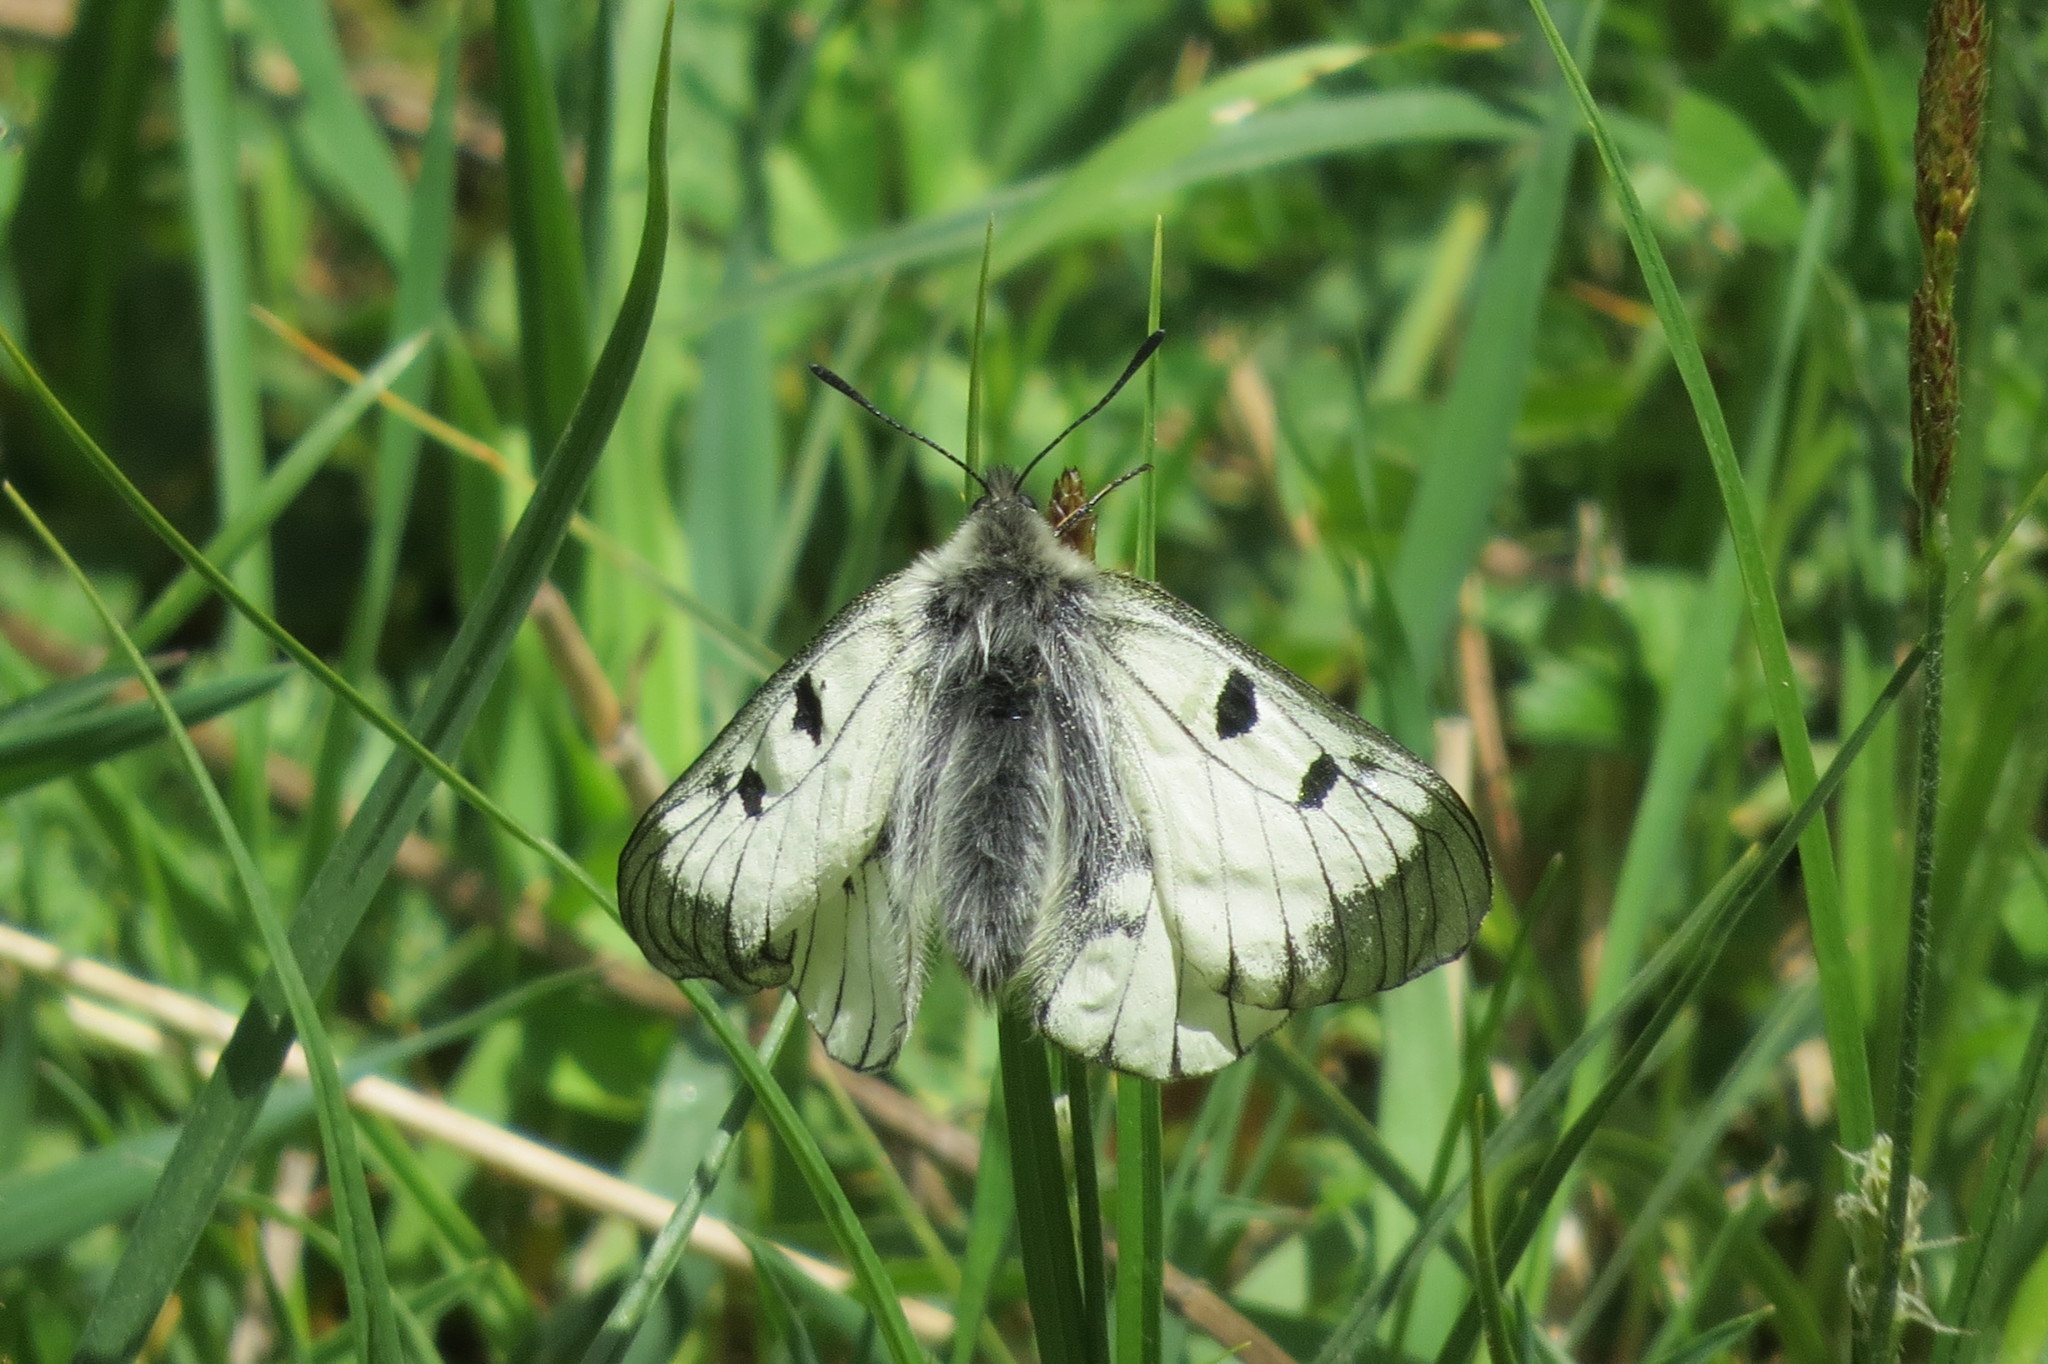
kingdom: Animalia
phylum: Arthropoda
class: Insecta
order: Lepidoptera
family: Papilionidae
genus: Parnassius
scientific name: Parnassius mnemosyne
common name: Clouded apollo
